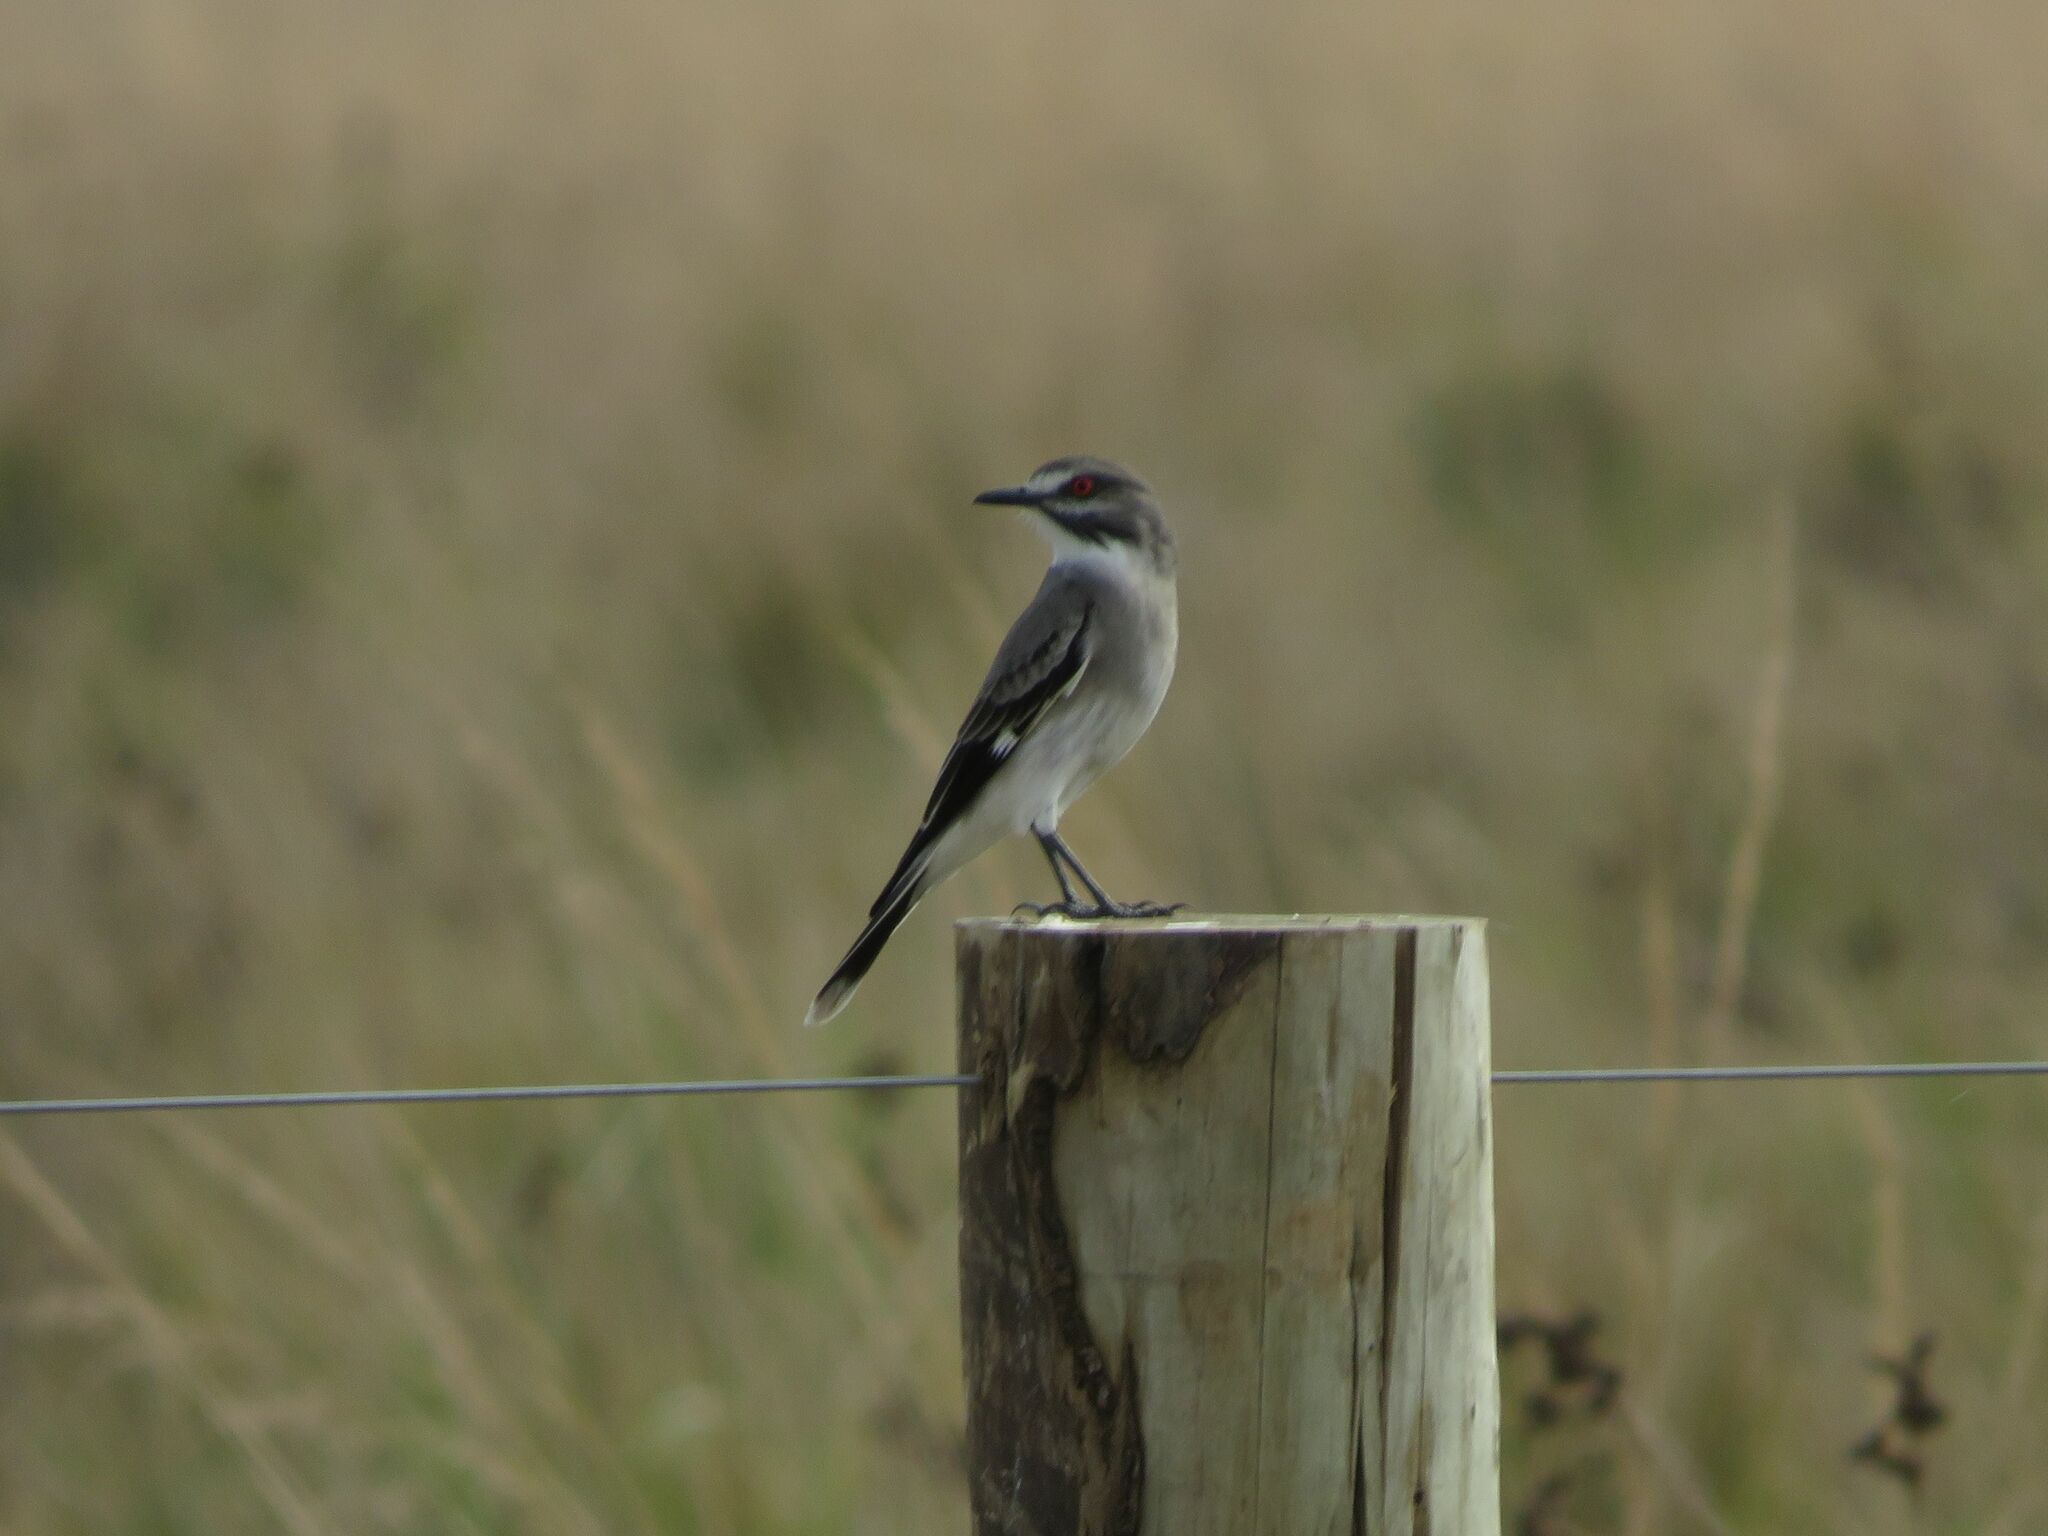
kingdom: Animalia
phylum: Chordata
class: Aves
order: Passeriformes
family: Tyrannidae
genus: Xolmis
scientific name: Xolmis cinereus
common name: Grey monjita
